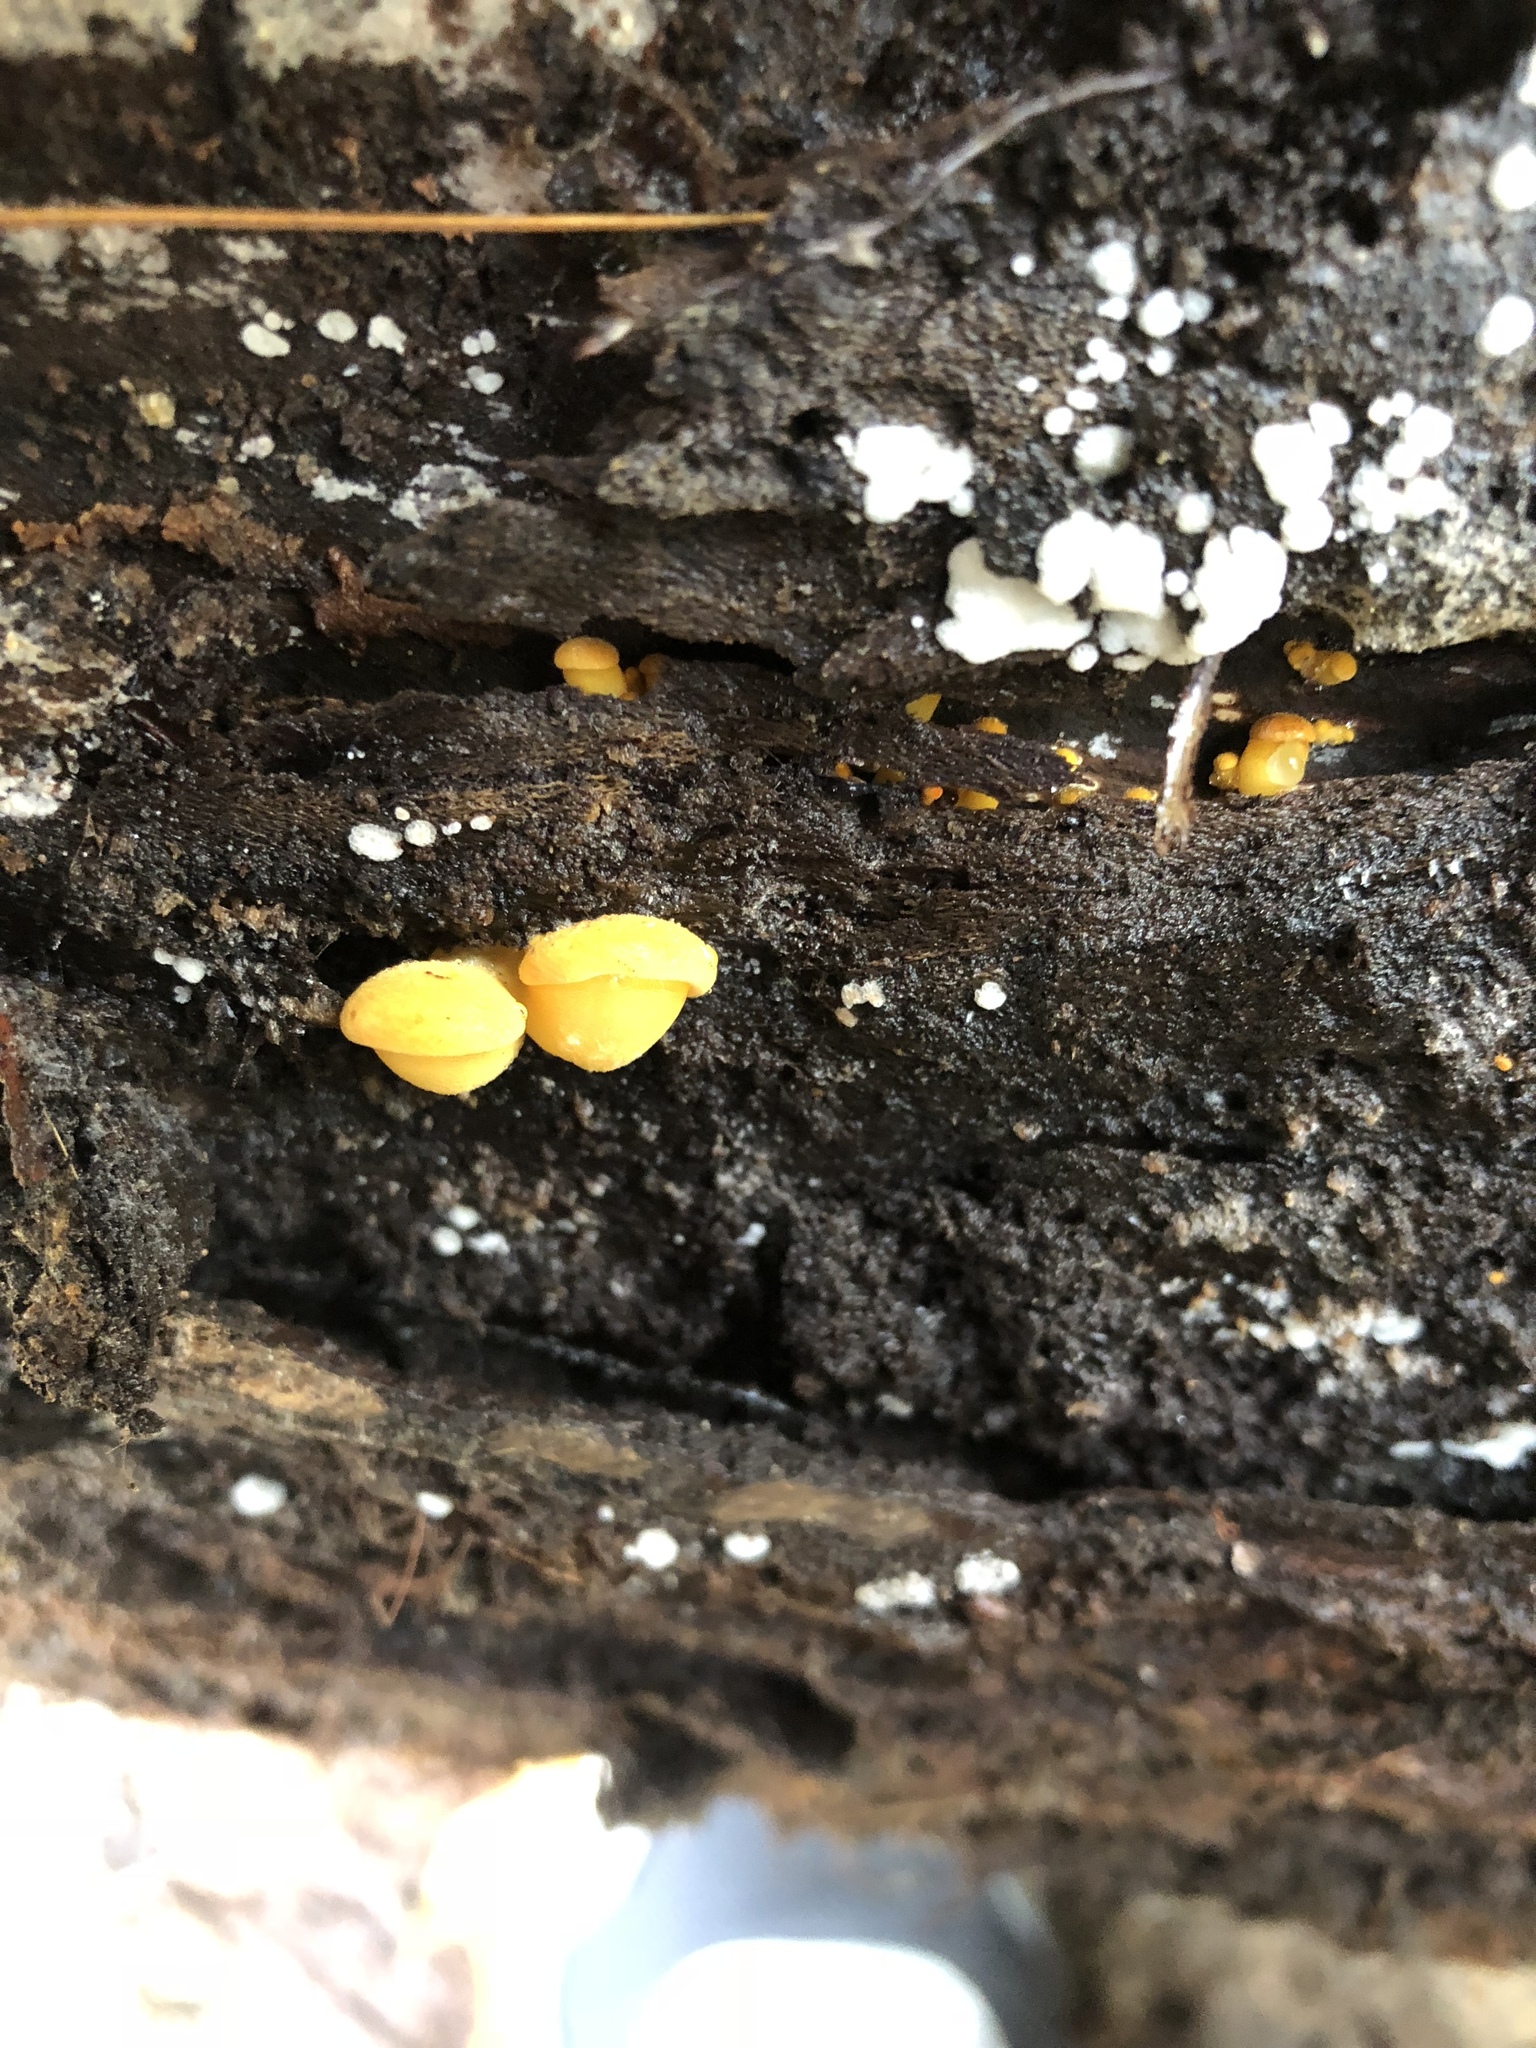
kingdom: Fungi
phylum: Basidiomycota
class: Agaricomycetes
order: Agaricales
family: Sarcomyxaceae
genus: Sarcomyxa
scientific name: Sarcomyxa serotina
